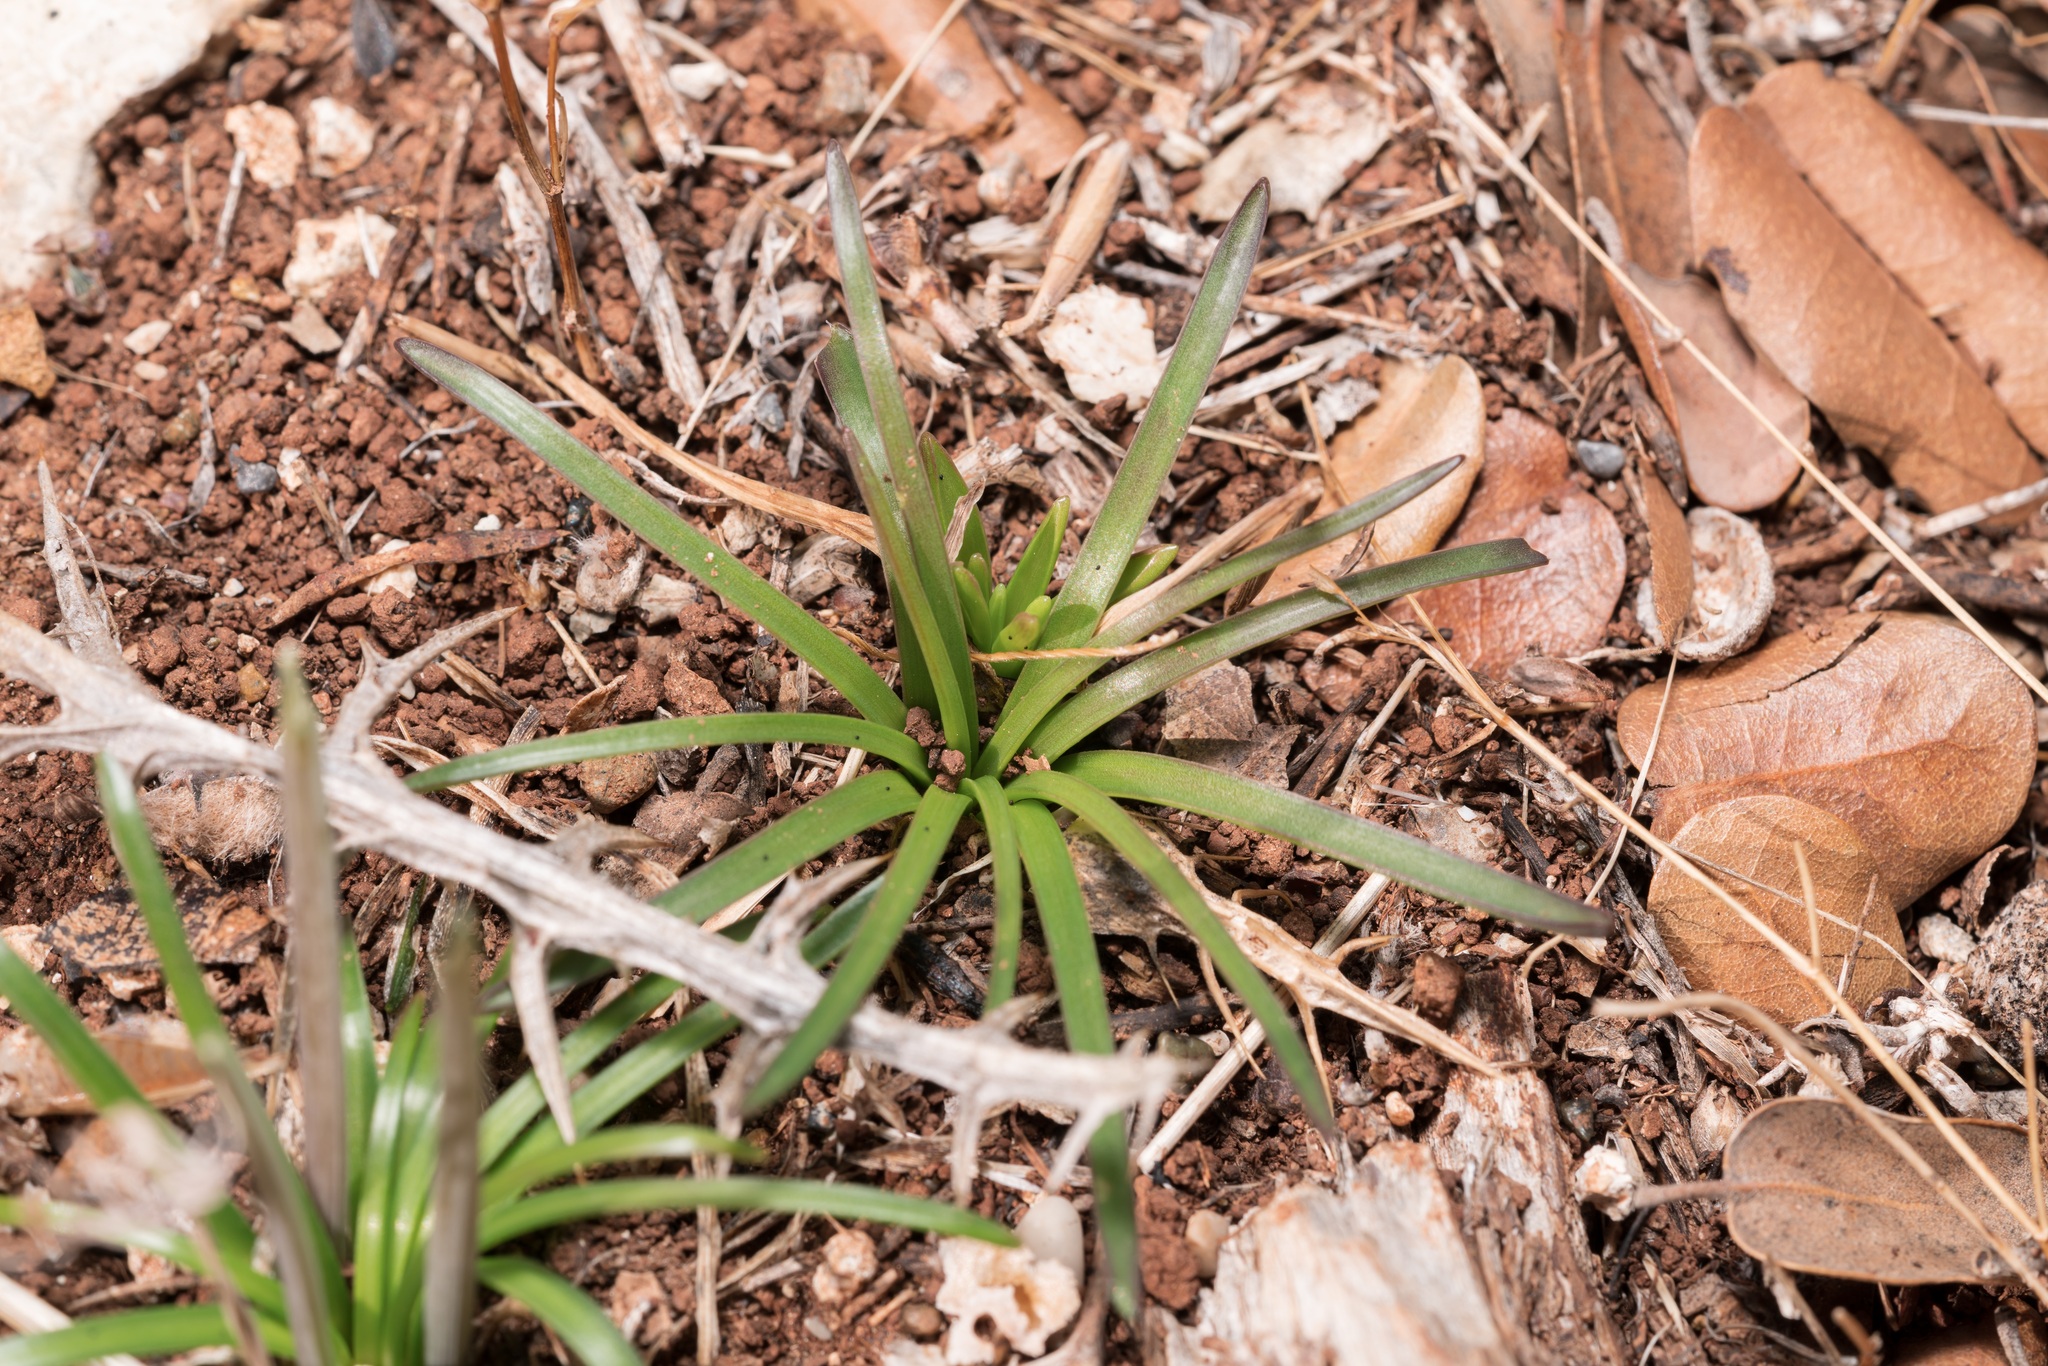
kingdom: Plantae
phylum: Tracheophyta
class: Magnoliopsida
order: Brassicales
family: Brassicaceae
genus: Coronopus
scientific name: Coronopus
